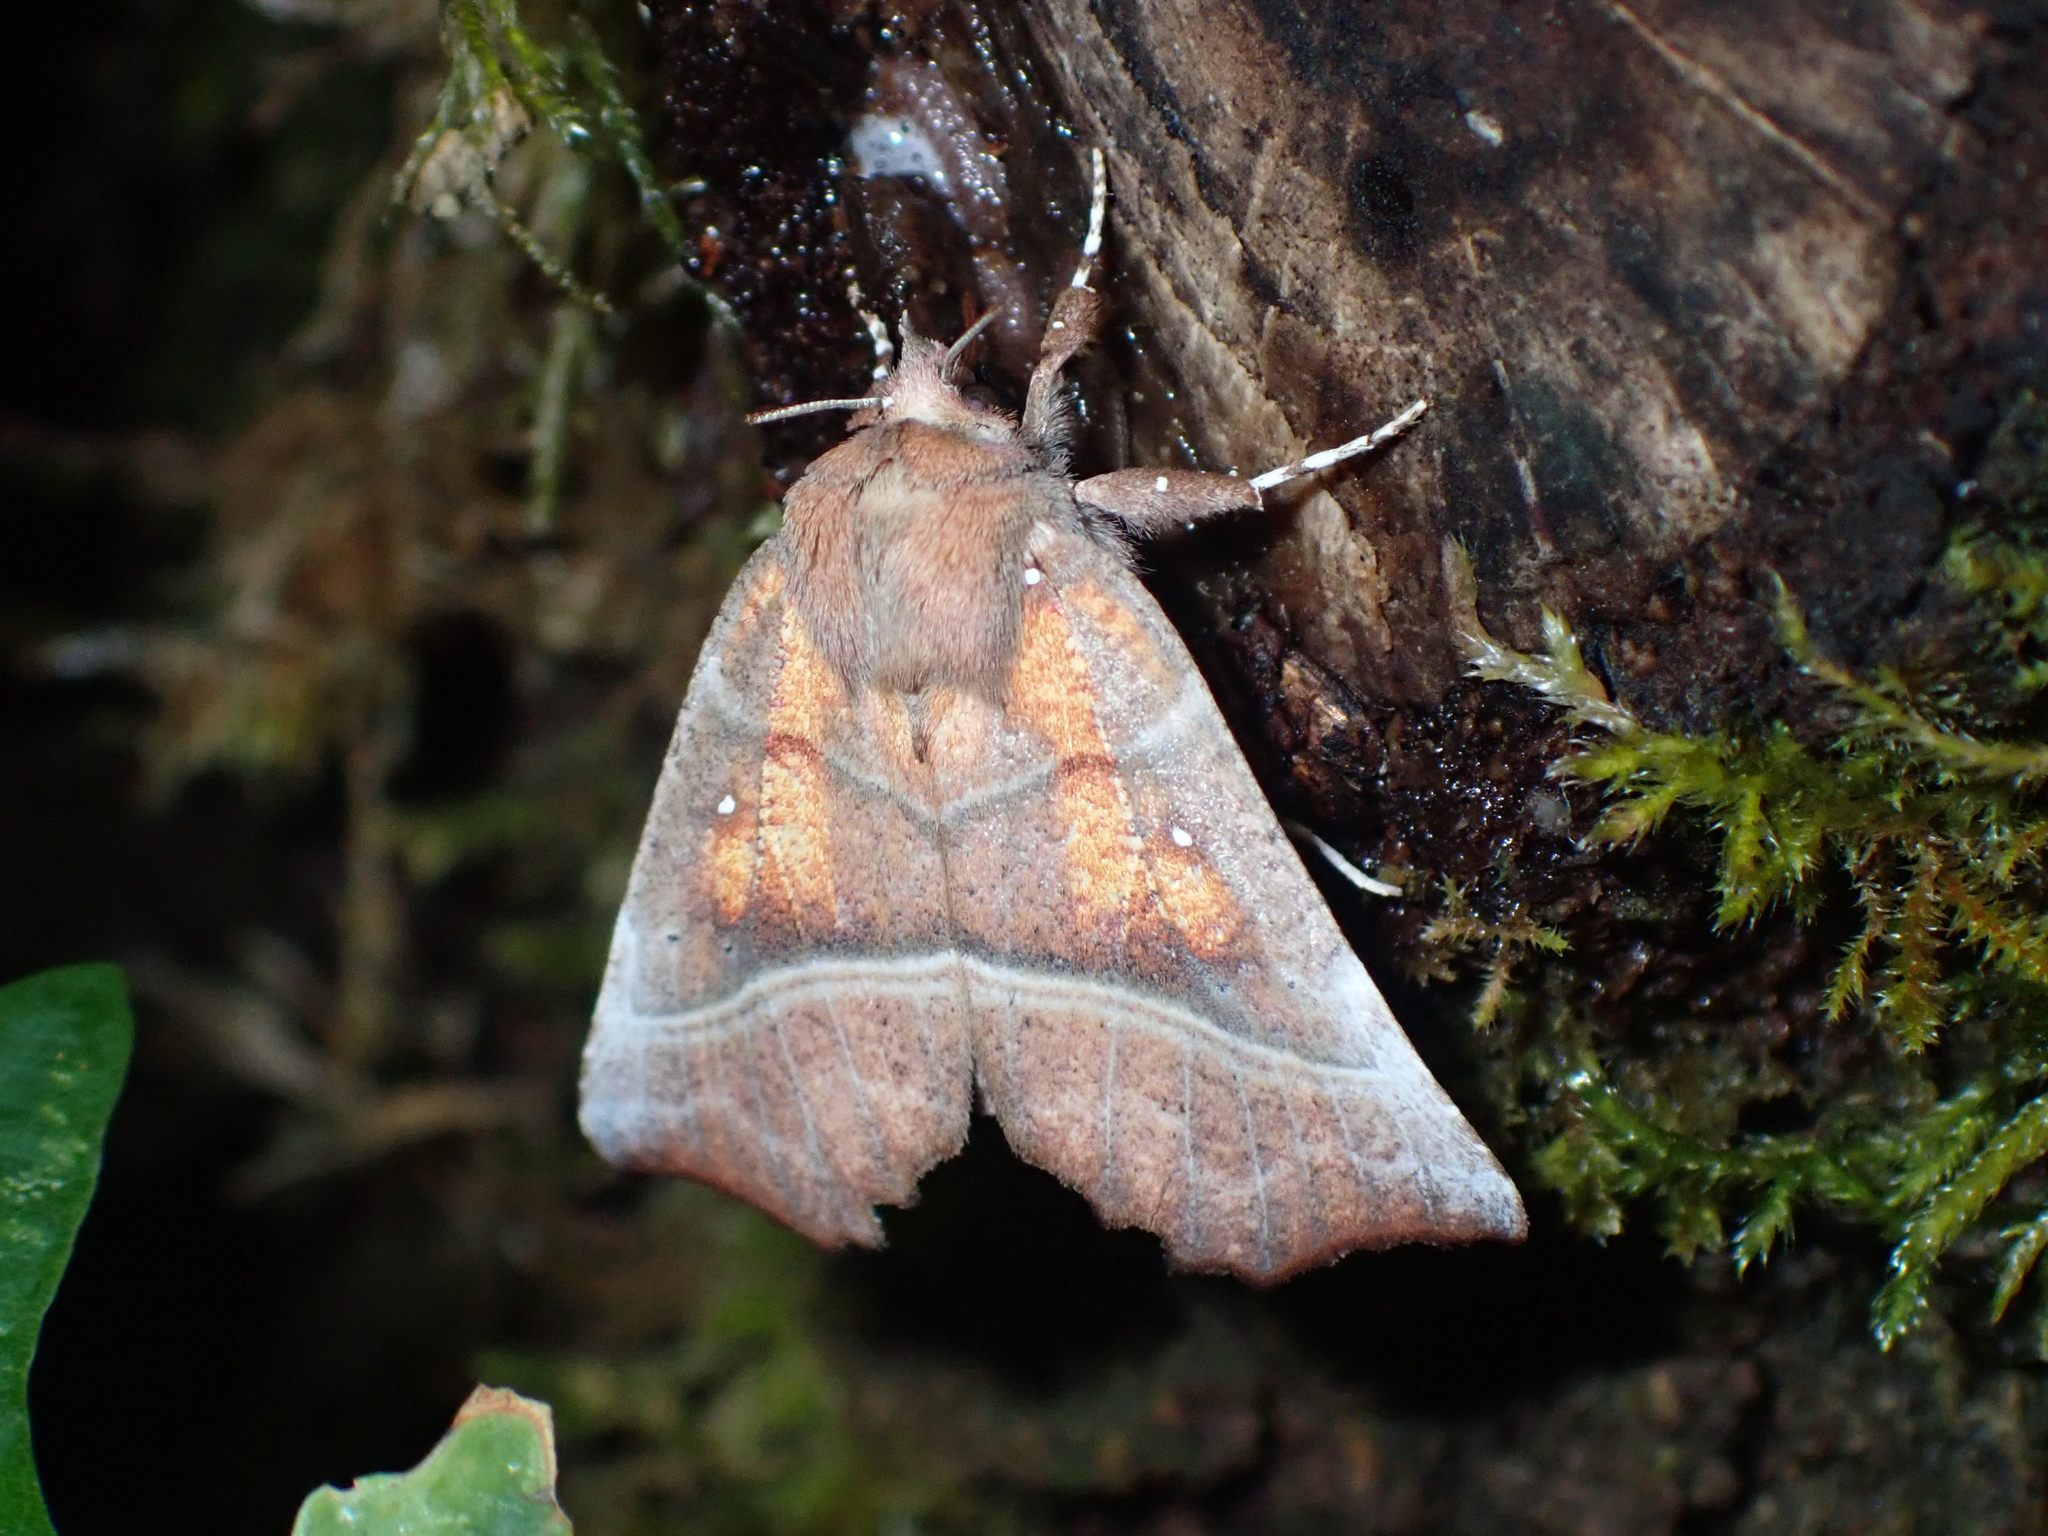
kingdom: Animalia
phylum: Arthropoda
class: Insecta
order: Lepidoptera
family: Erebidae
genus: Scoliopteryx
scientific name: Scoliopteryx libatrix
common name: Herald
